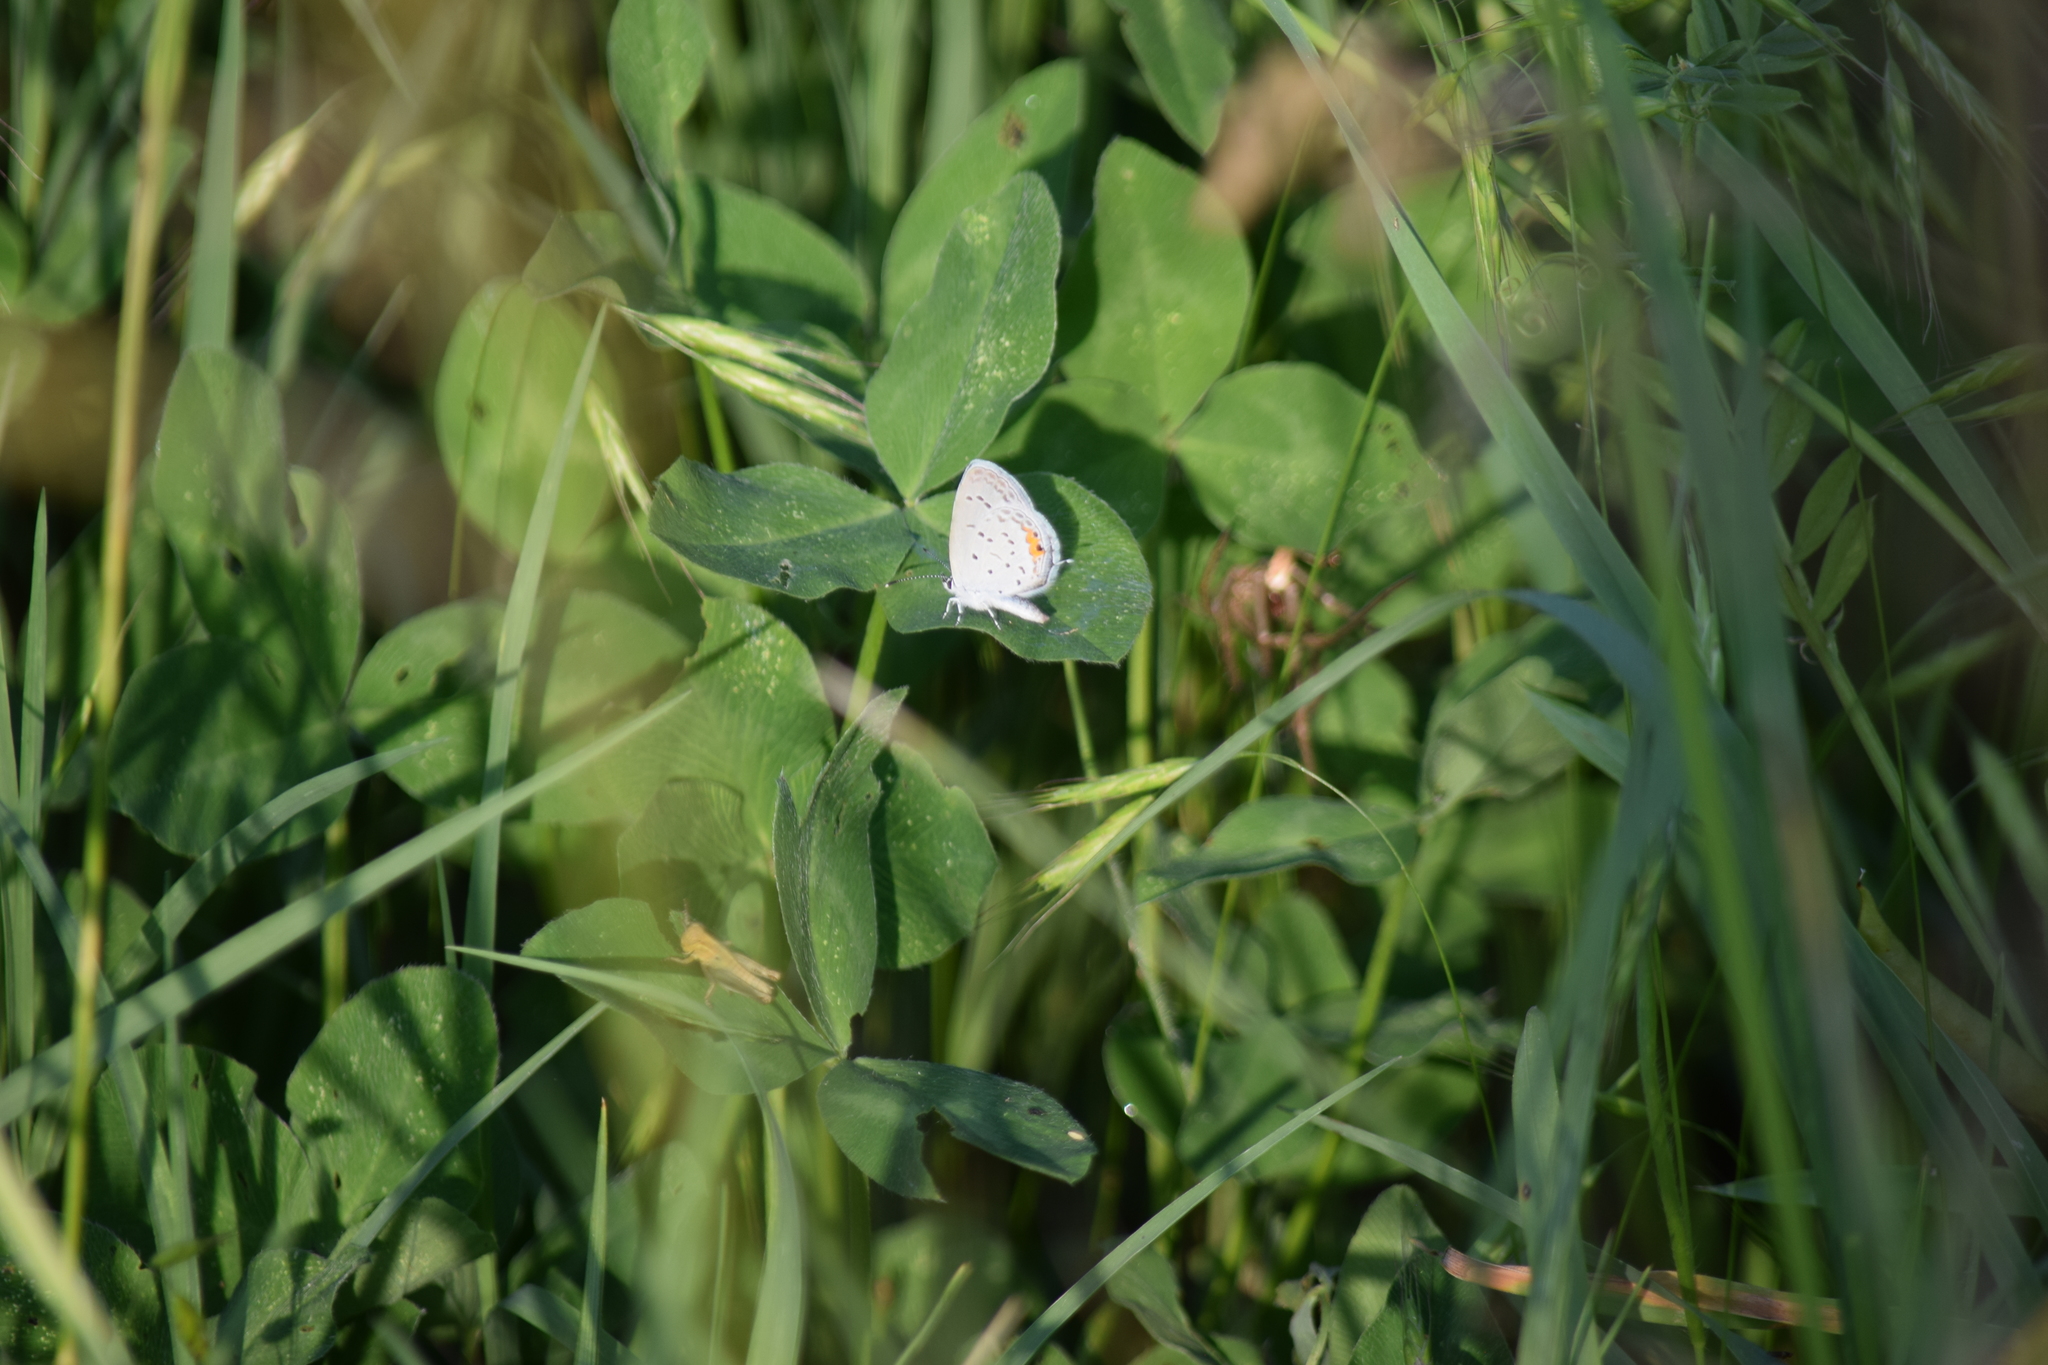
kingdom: Animalia
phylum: Arthropoda
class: Insecta
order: Lepidoptera
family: Lycaenidae
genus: Elkalyce
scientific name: Elkalyce comyntas
